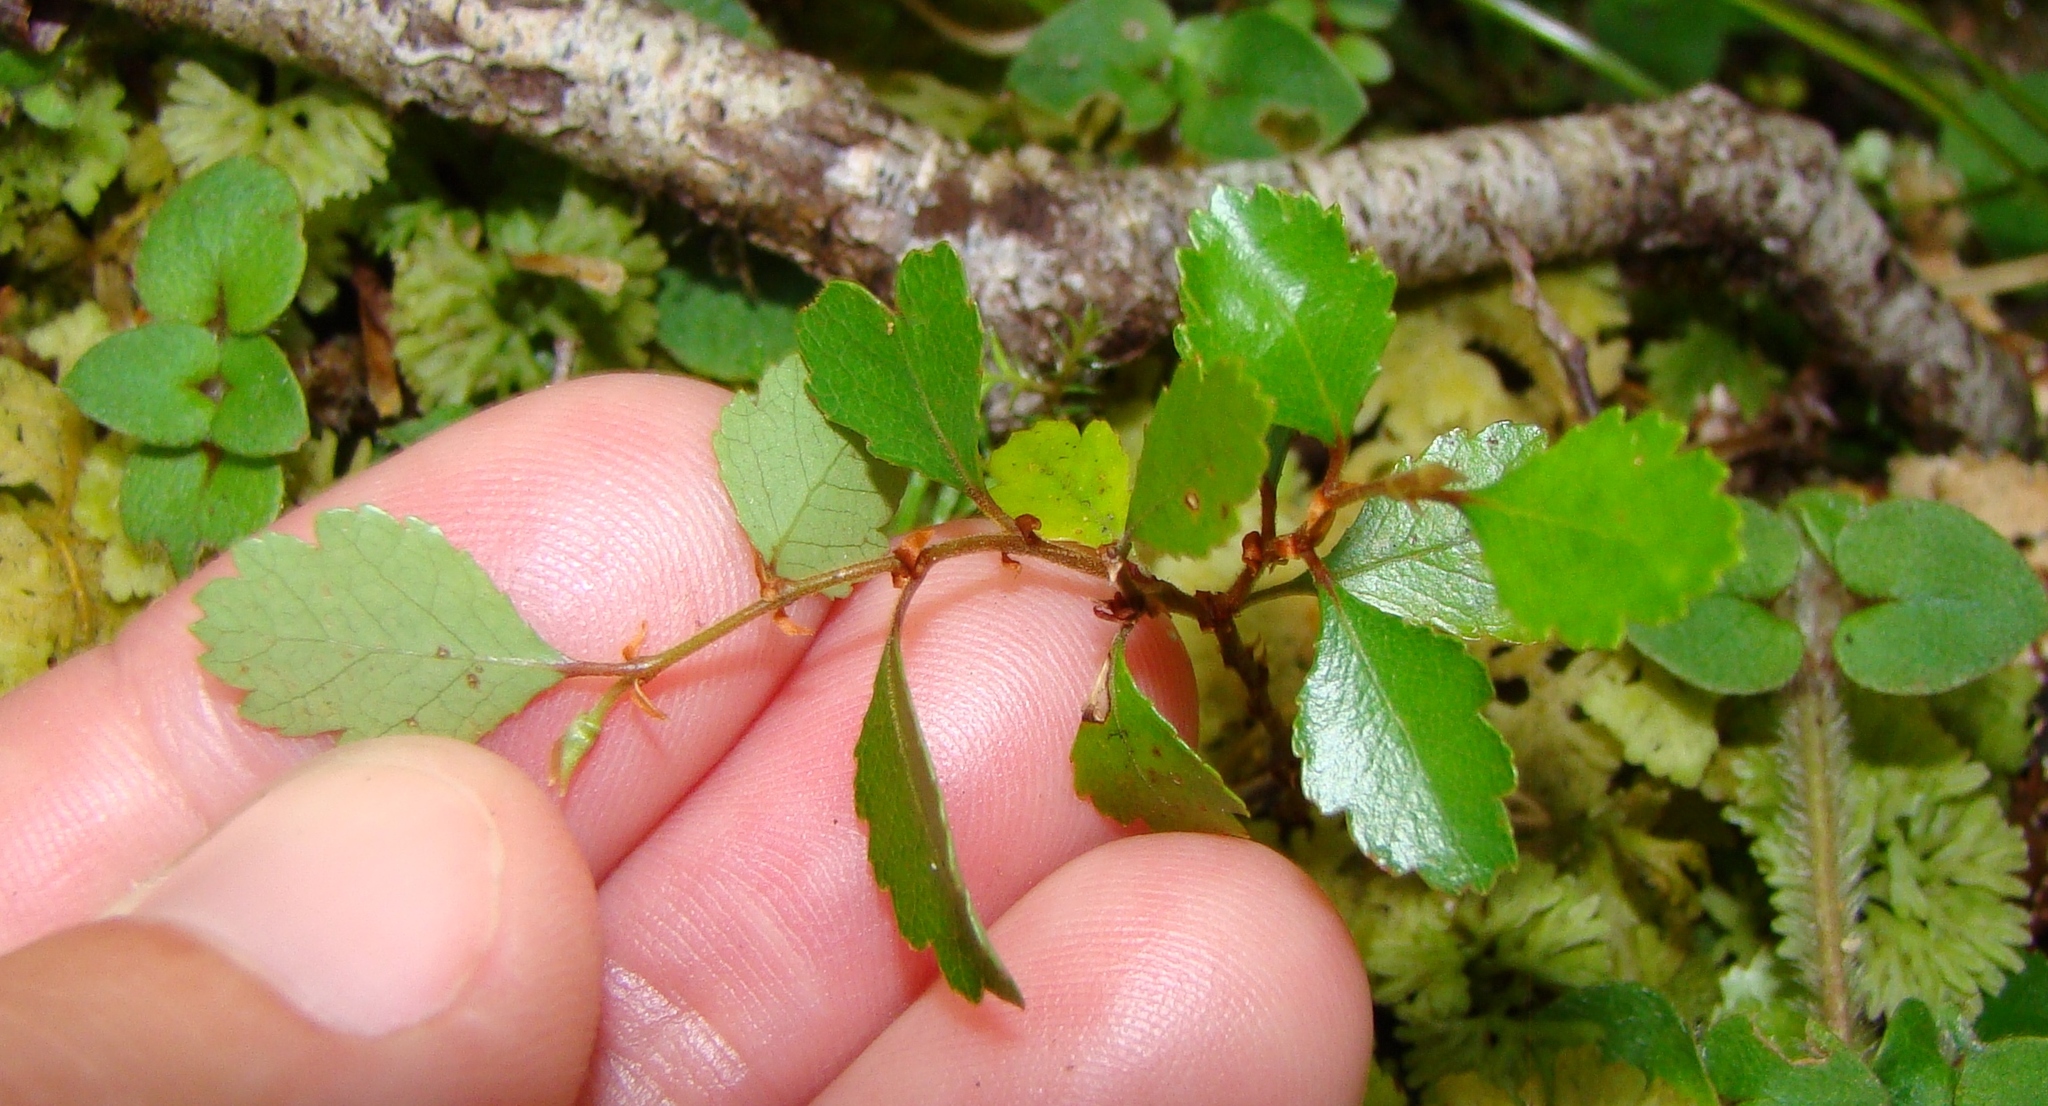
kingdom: Plantae
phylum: Tracheophyta
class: Magnoliopsida
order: Fagales
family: Nothofagaceae
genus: Nothofagus
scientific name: Nothofagus menziesii
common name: Silver beech
